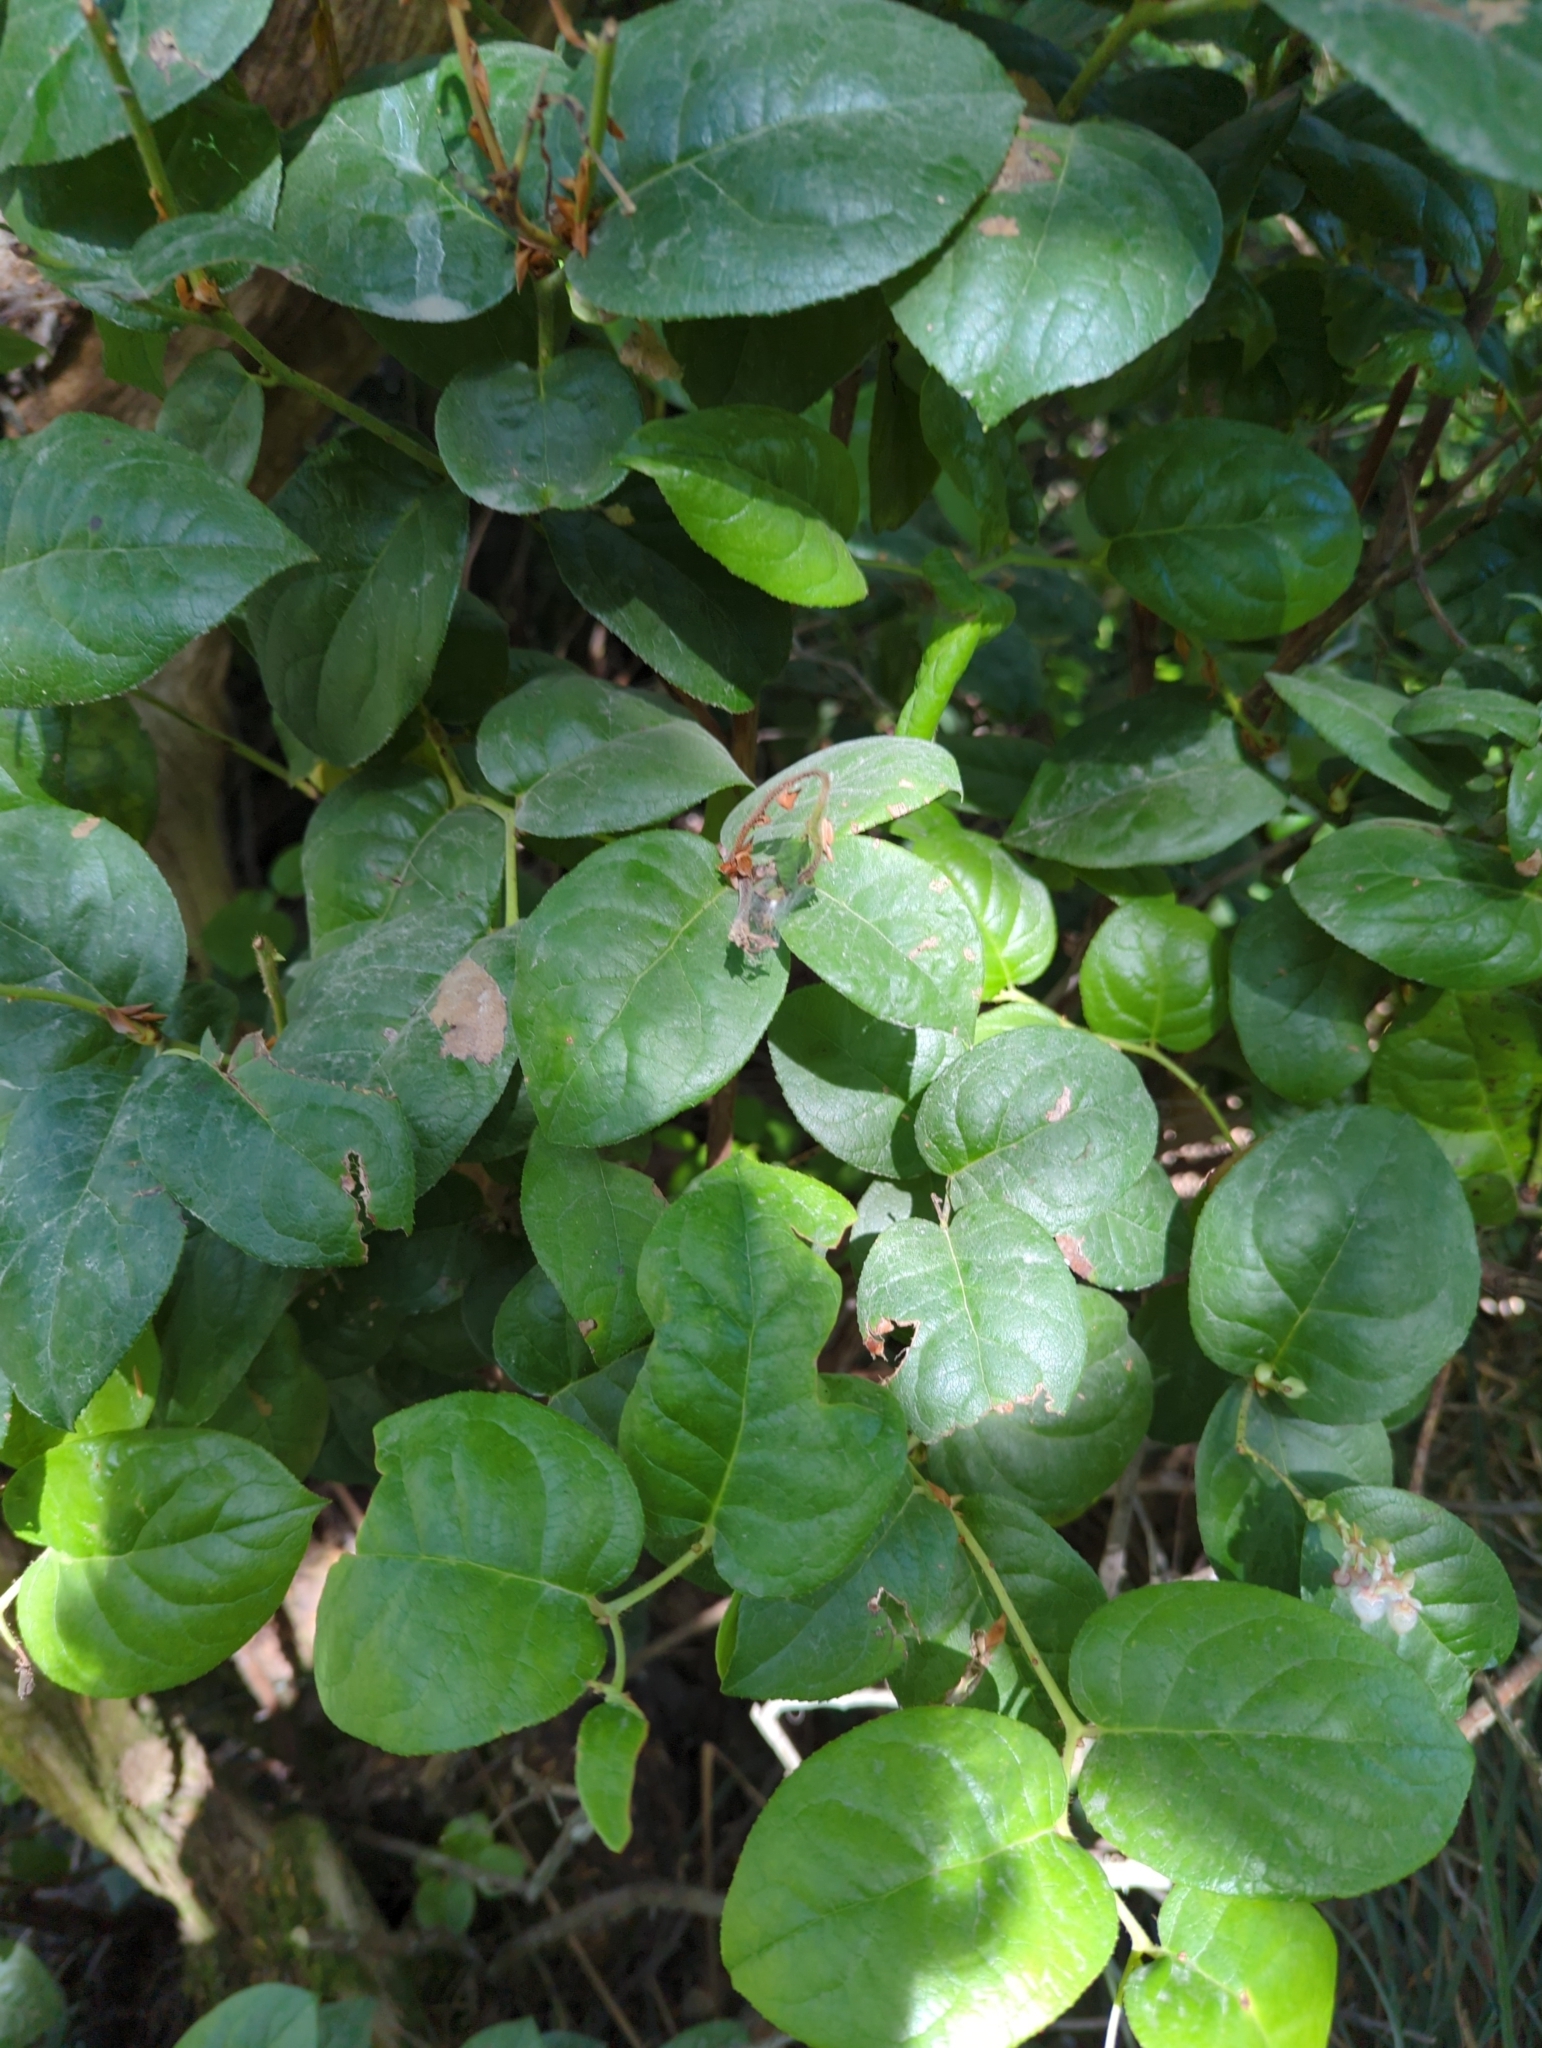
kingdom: Plantae
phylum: Tracheophyta
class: Magnoliopsida
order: Ericales
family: Ericaceae
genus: Gaultheria
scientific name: Gaultheria shallon
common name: Shallon
